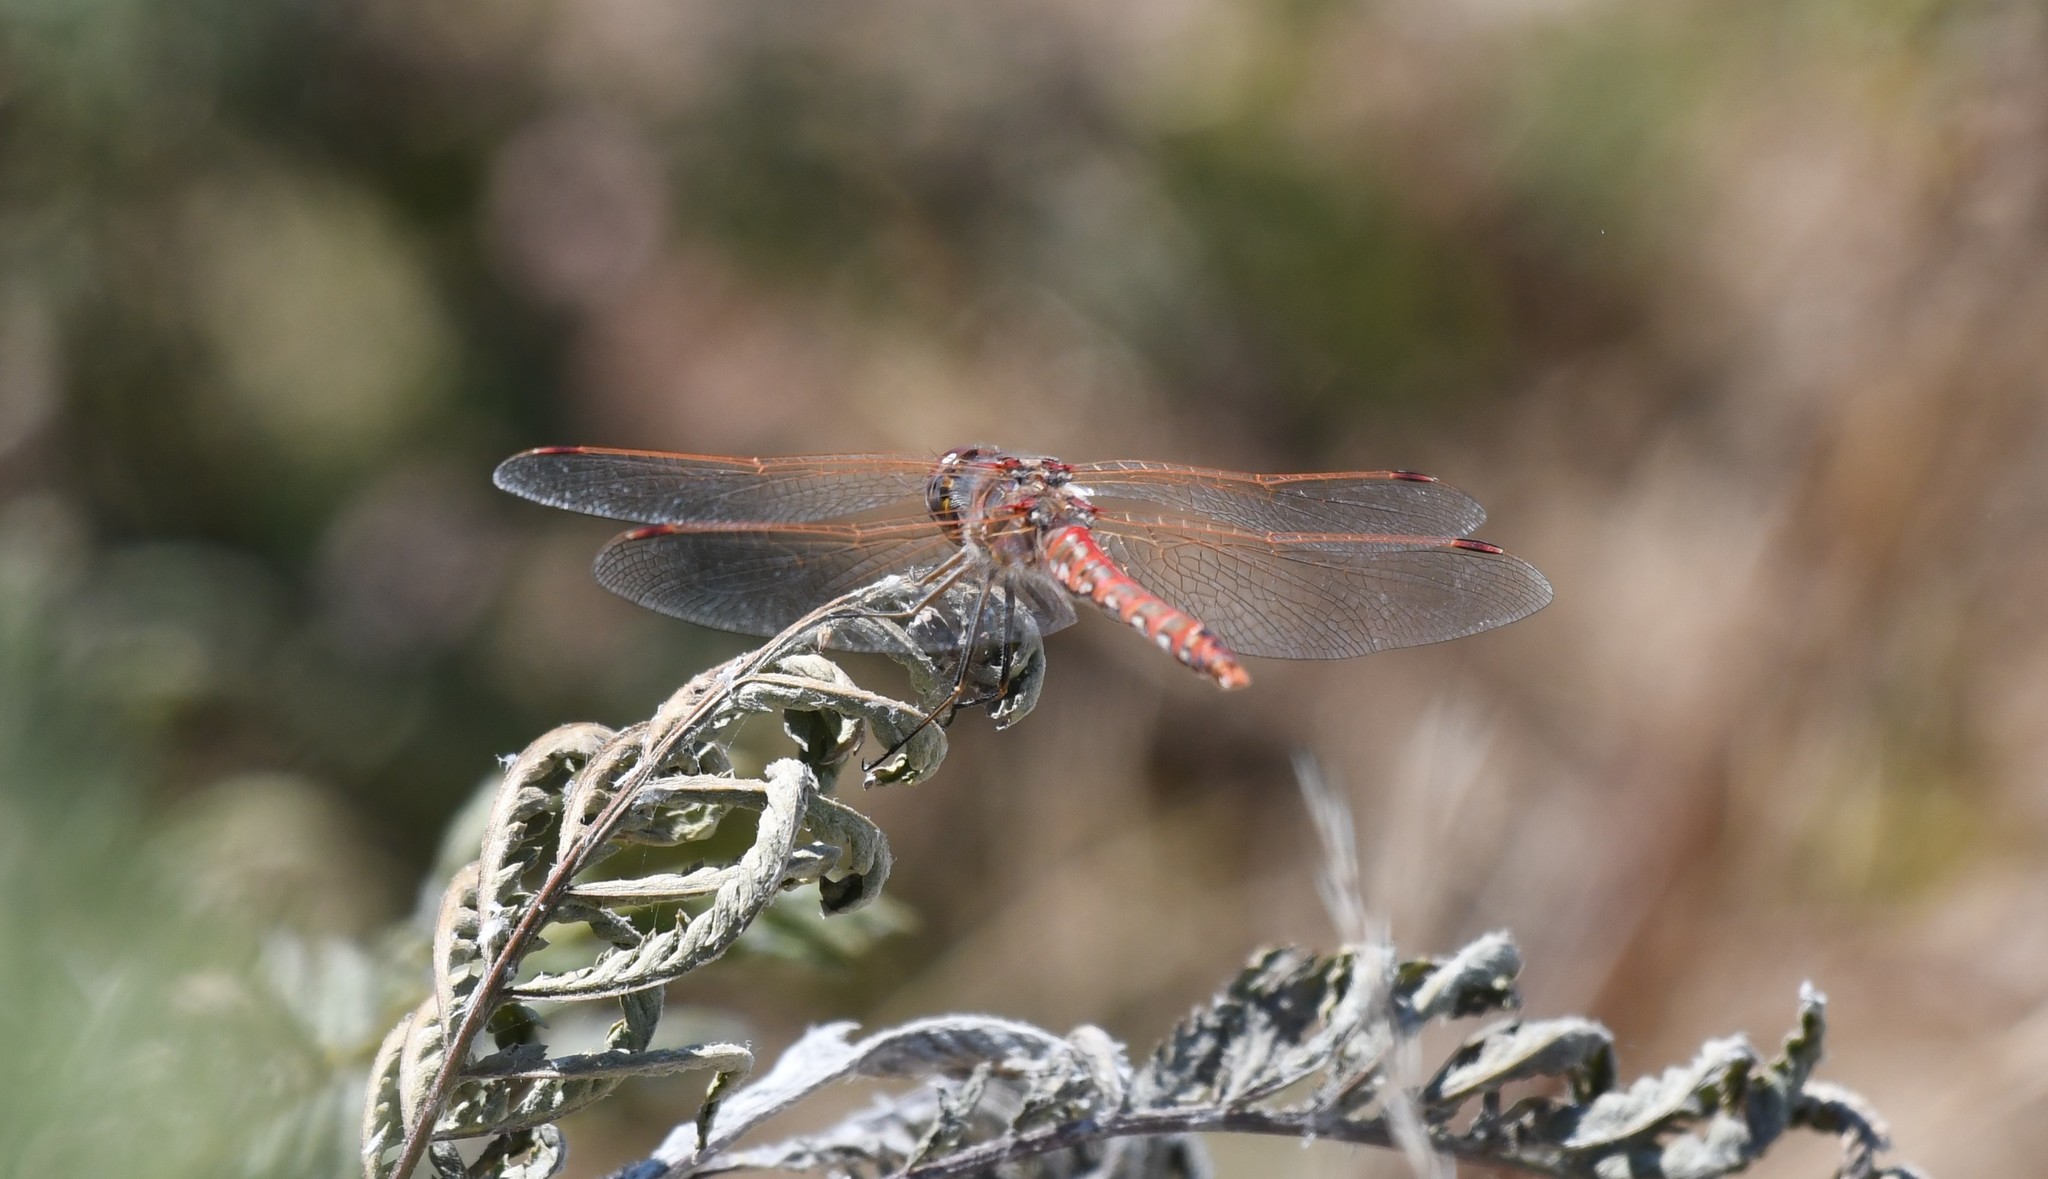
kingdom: Animalia
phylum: Arthropoda
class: Insecta
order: Odonata
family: Libellulidae
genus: Sympetrum
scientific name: Sympetrum corruptum
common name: Variegated meadowhawk
